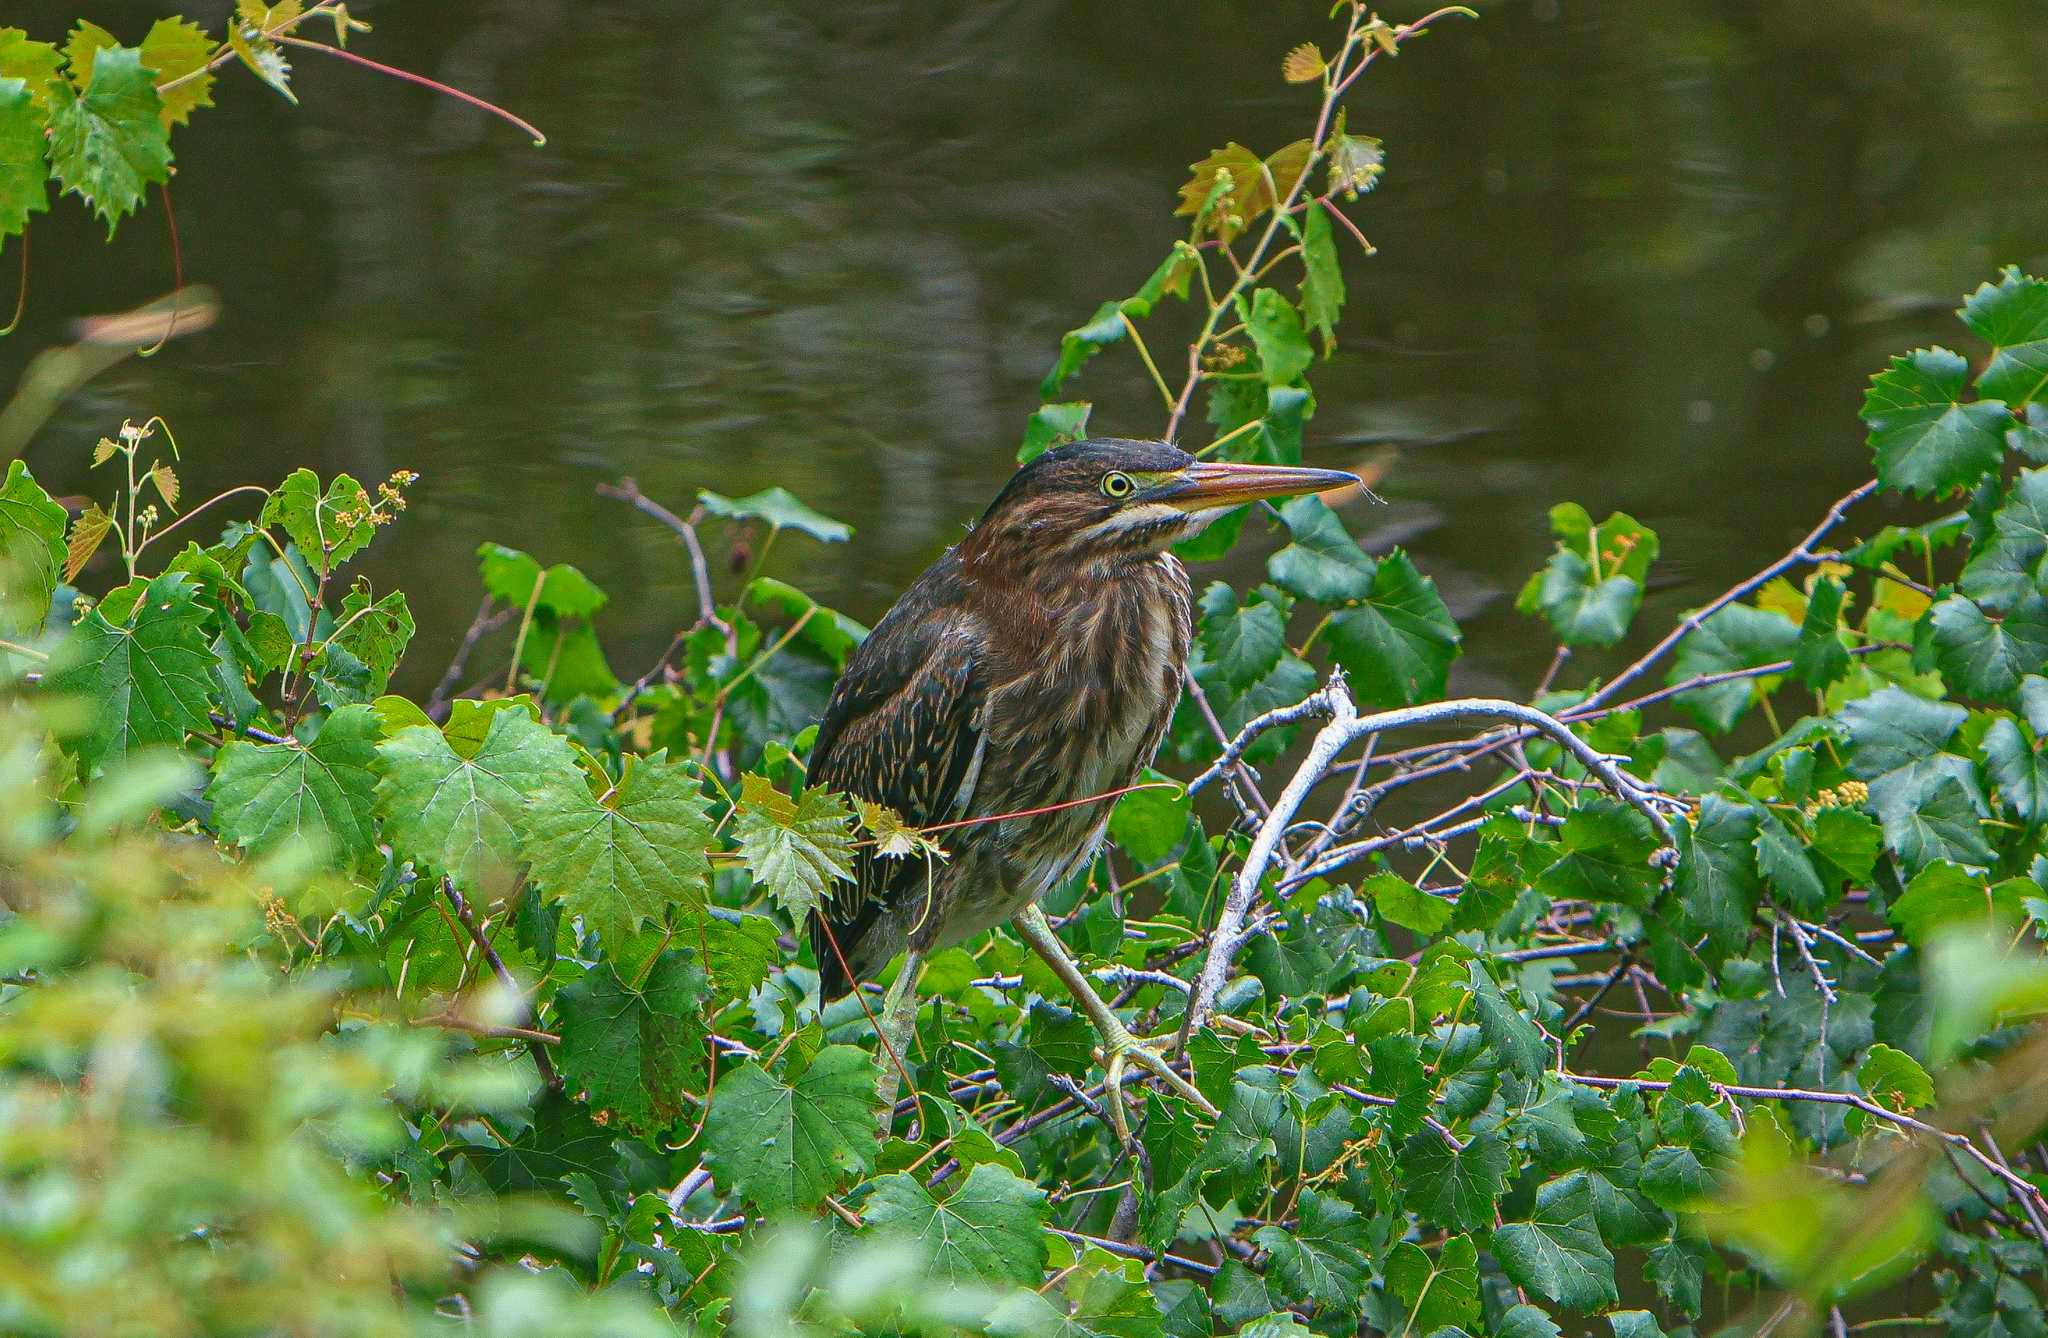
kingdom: Animalia
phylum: Chordata
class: Aves
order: Pelecaniformes
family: Ardeidae
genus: Butorides
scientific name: Butorides virescens
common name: Green heron
